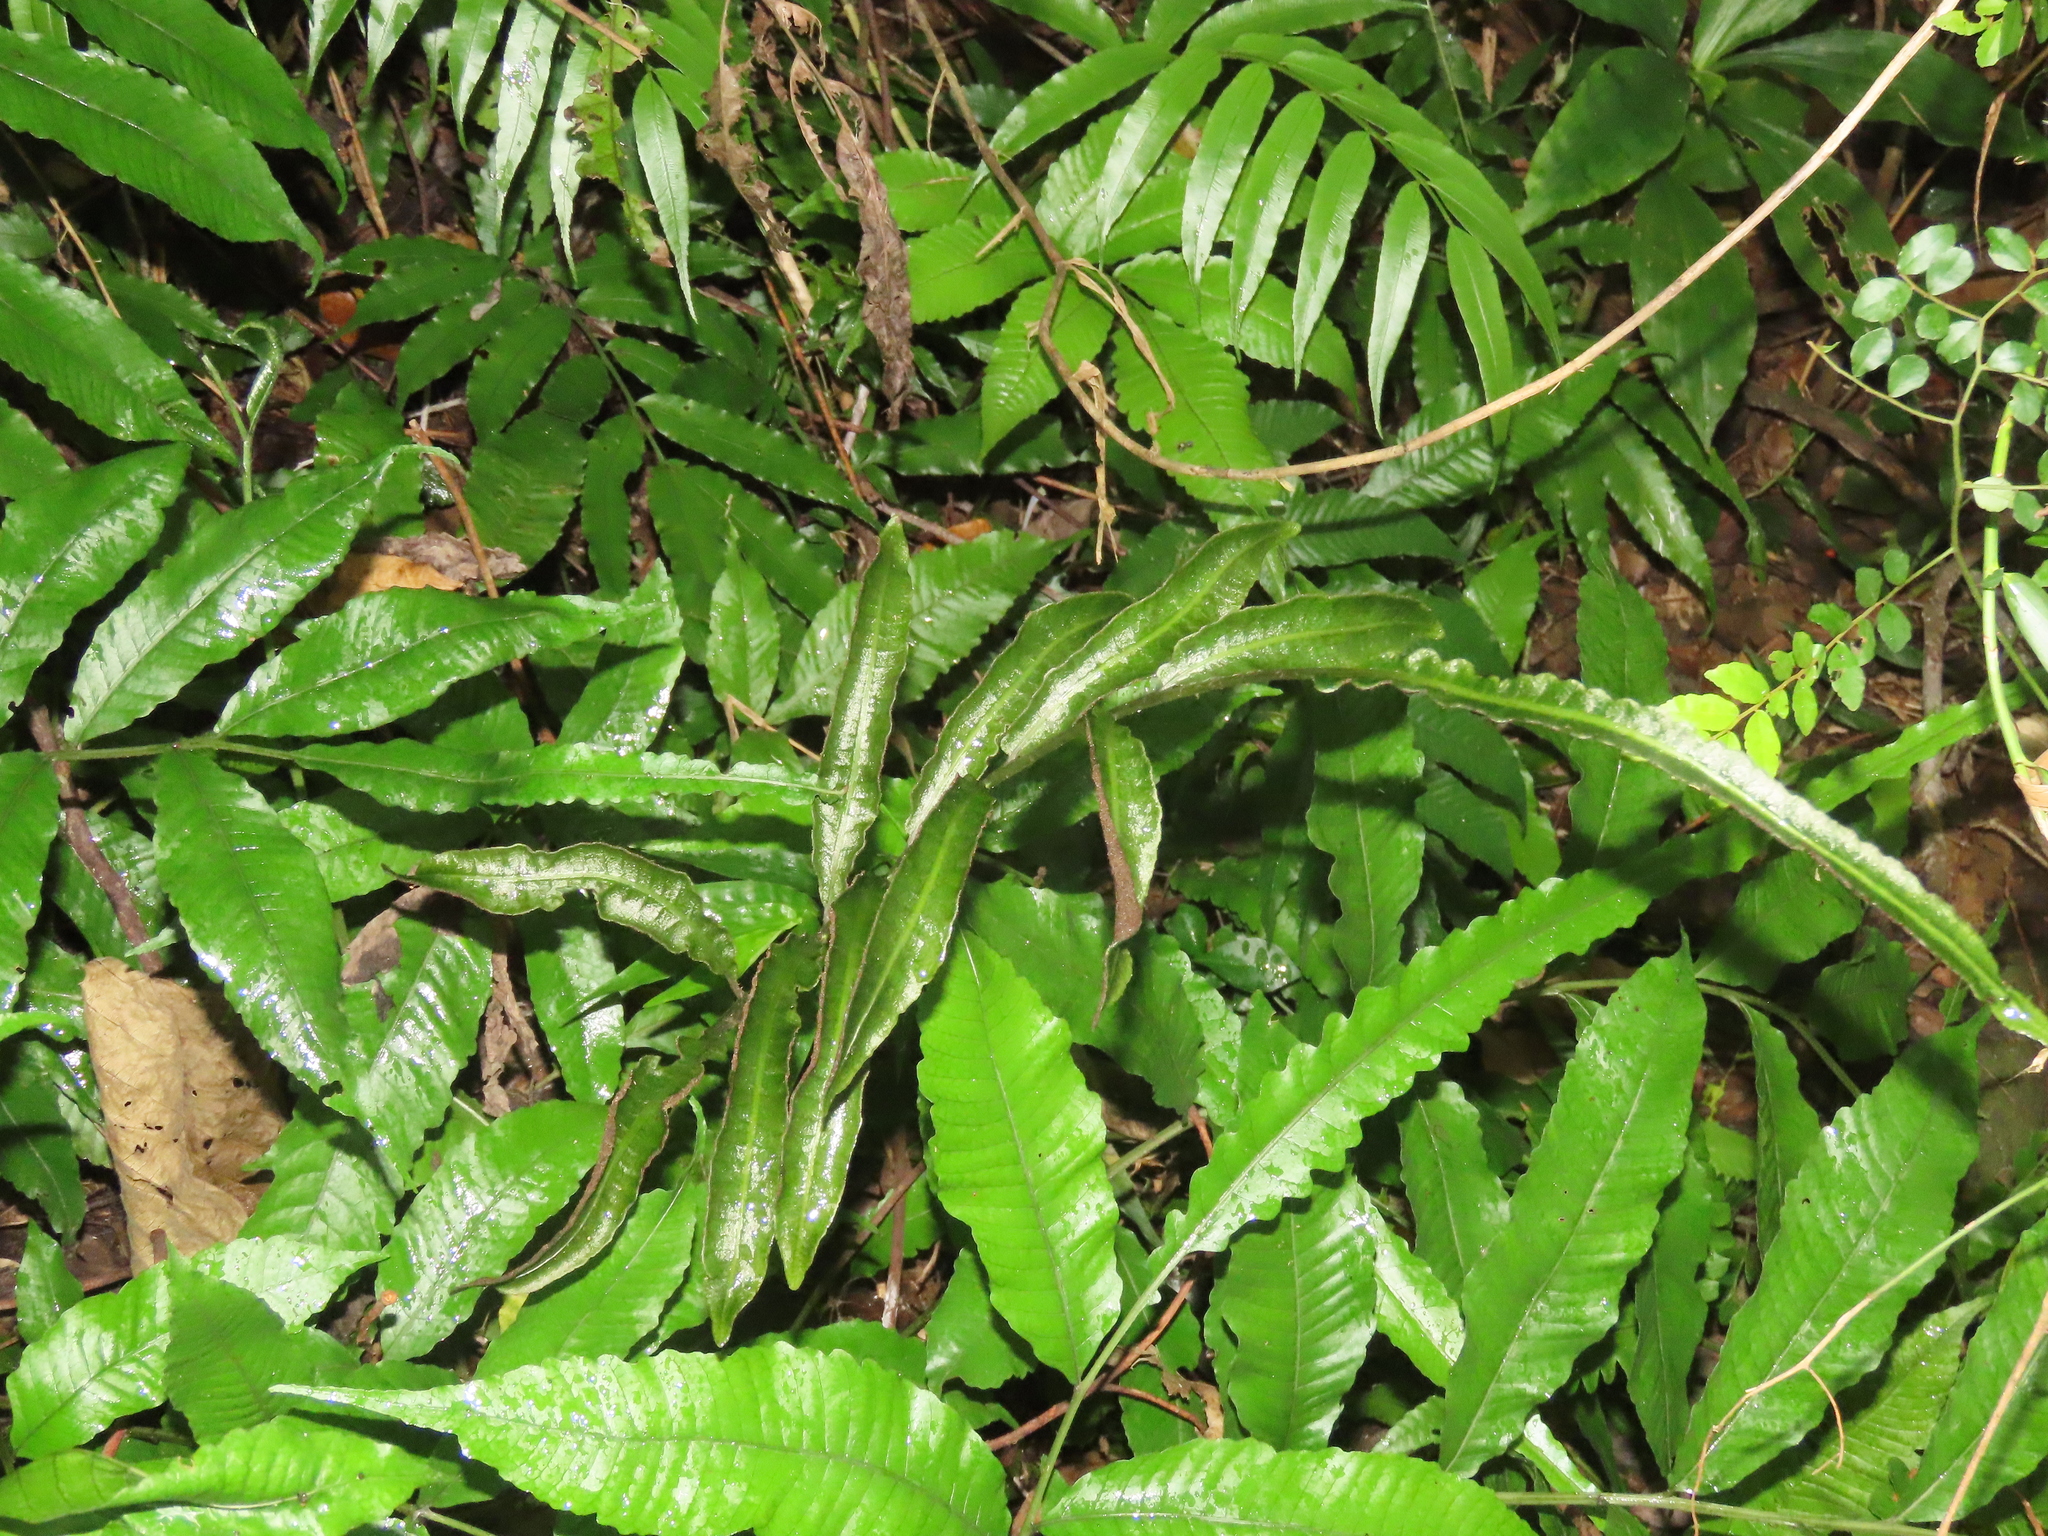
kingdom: Plantae
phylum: Tracheophyta
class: Polypodiopsida
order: Polypodiales
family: Dryopteridaceae
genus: Bolbitis
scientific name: Bolbitis heteroclita
